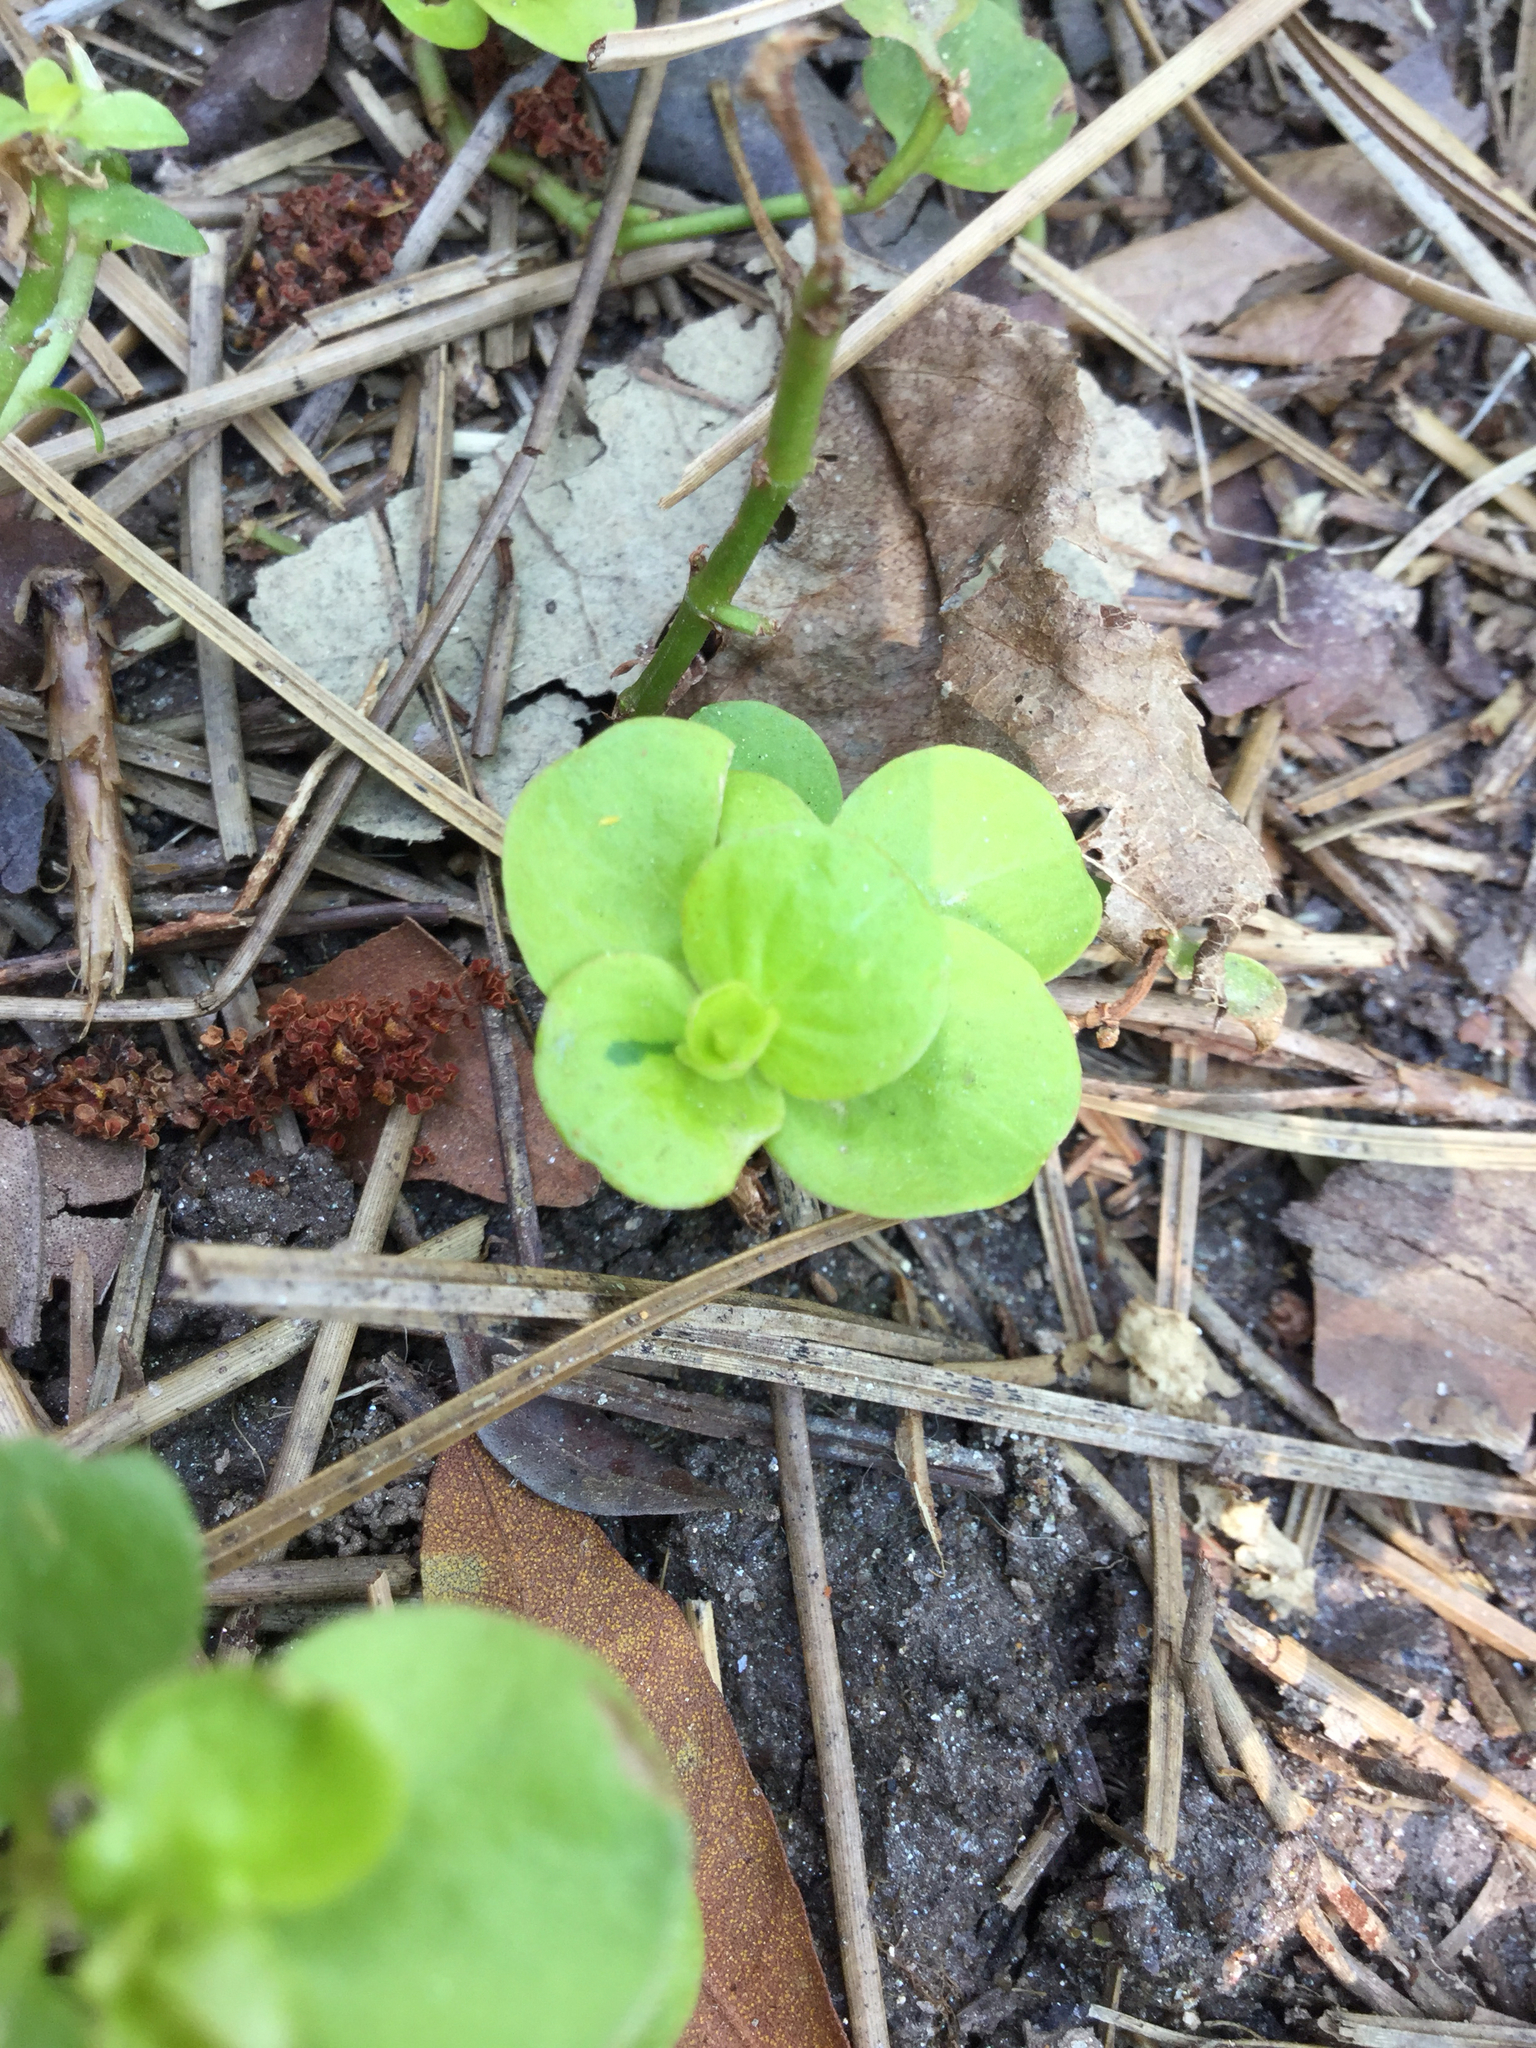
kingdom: Plantae
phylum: Tracheophyta
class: Magnoliopsida
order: Ericales
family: Primulaceae
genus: Lysimachia
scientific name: Lysimachia nummularia
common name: Moneywort
